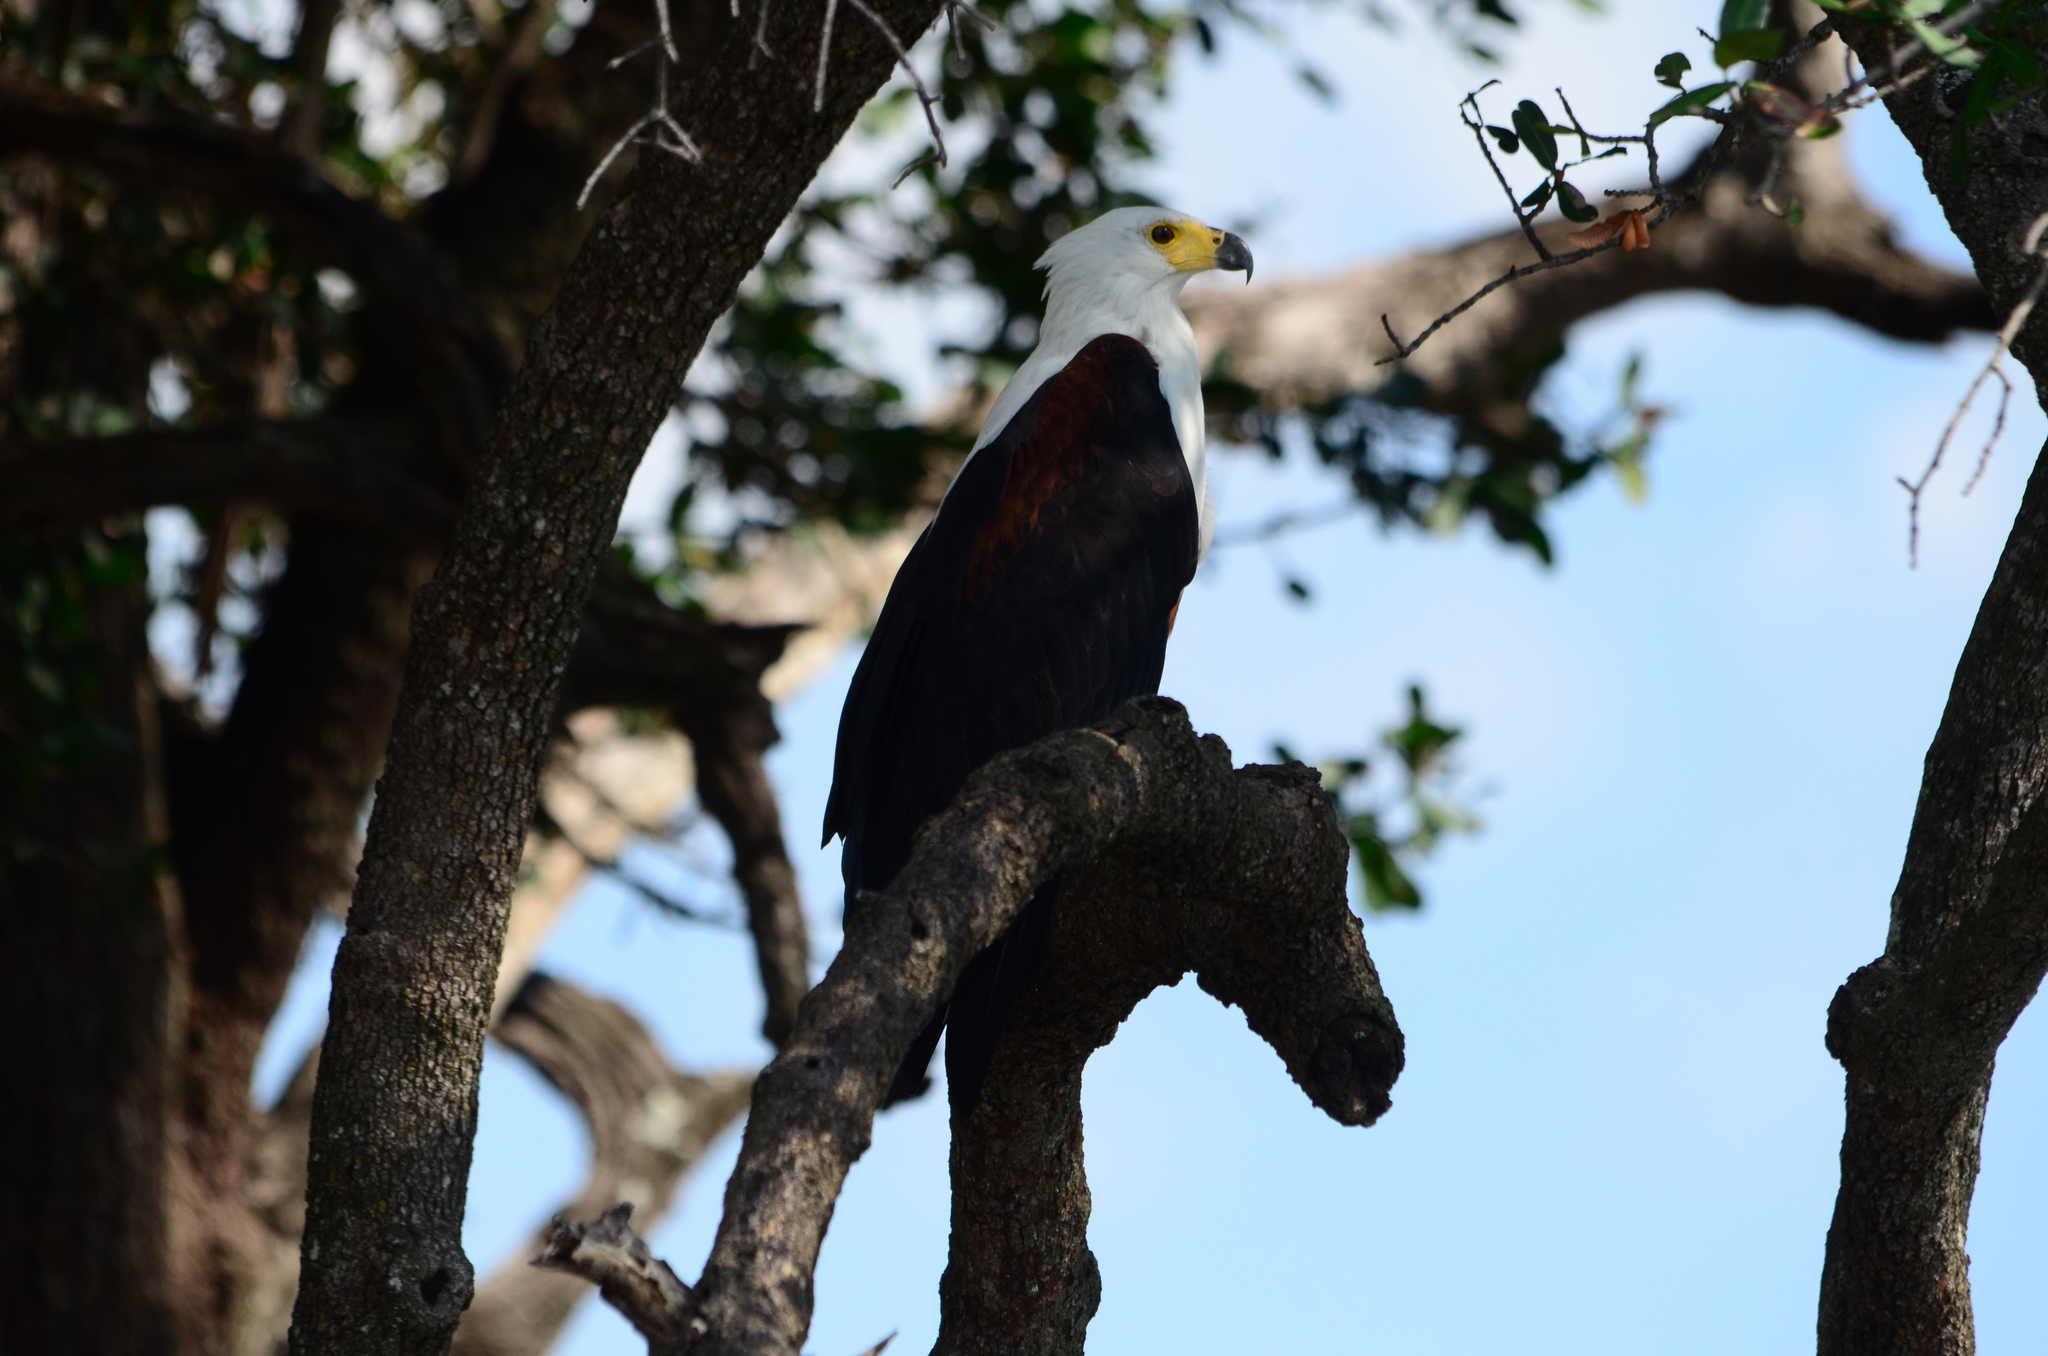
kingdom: Animalia
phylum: Chordata
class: Aves
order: Accipitriformes
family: Accipitridae
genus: Haliaeetus
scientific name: Haliaeetus vocifer
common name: African fish eagle
